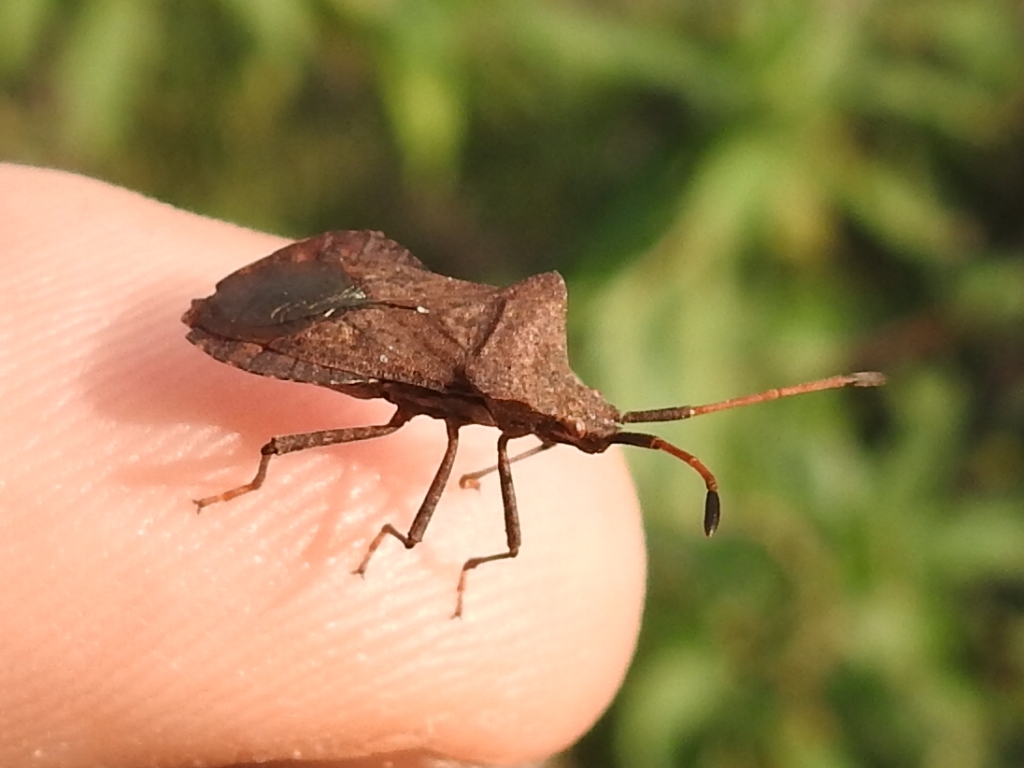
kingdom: Animalia
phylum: Arthropoda
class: Insecta
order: Hemiptera
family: Coreidae
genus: Coreus
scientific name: Coreus marginatus
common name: Dock bug
